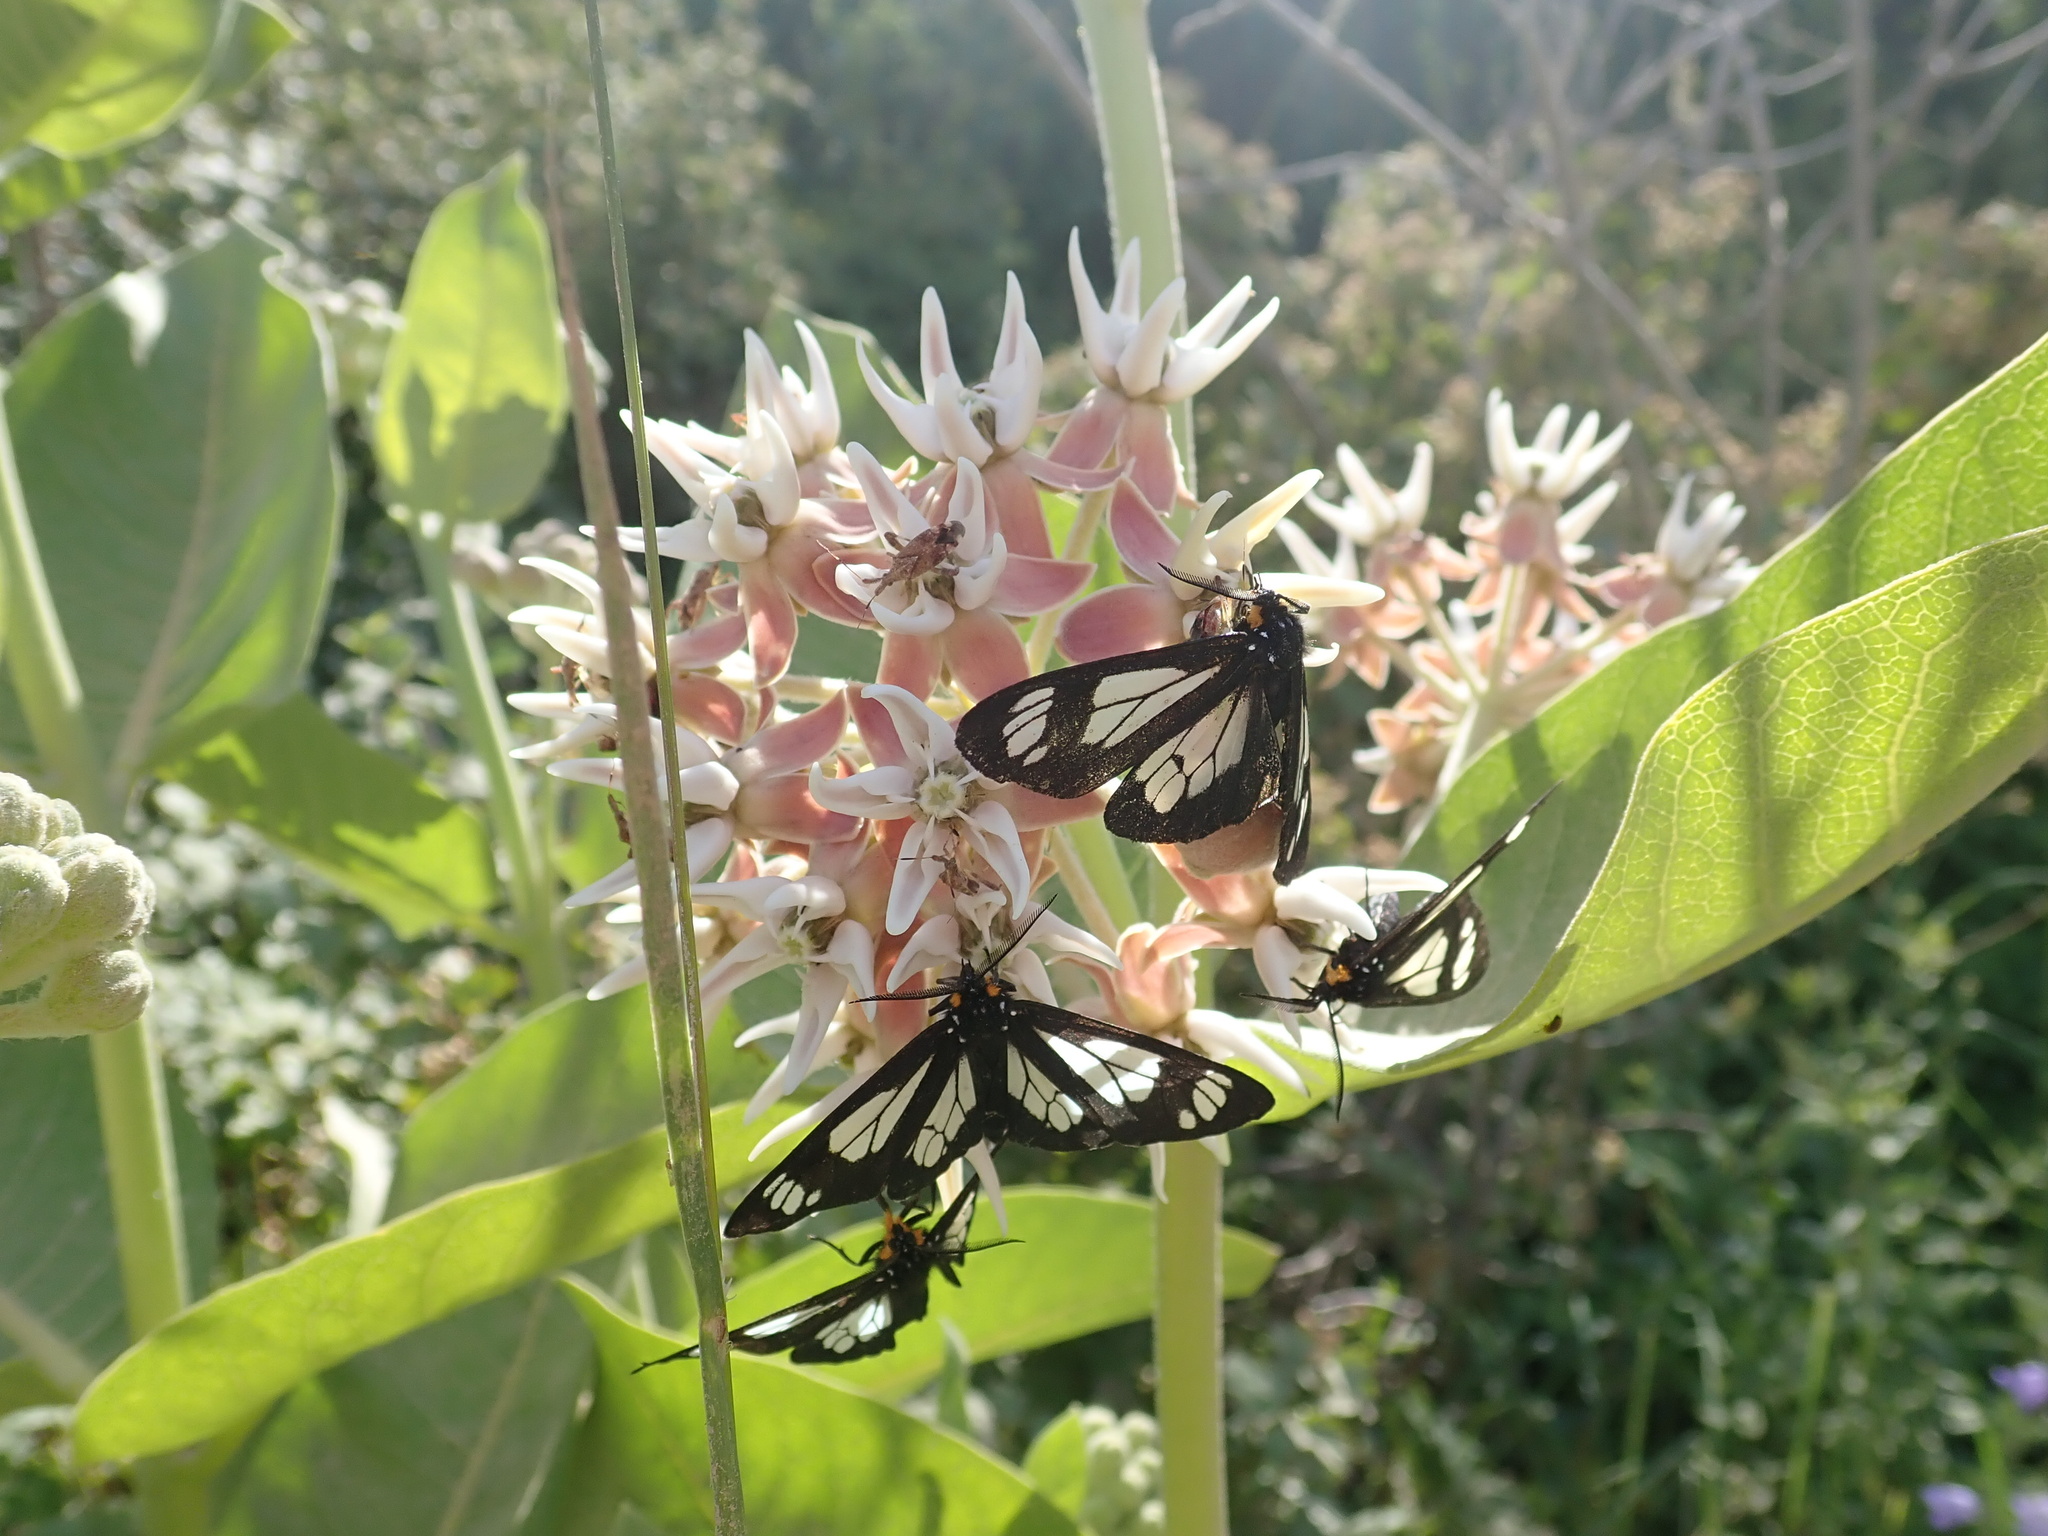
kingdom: Plantae
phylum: Tracheophyta
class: Magnoliopsida
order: Gentianales
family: Apocynaceae
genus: Asclepias
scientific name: Asclepias speciosa
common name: Showy milkweed
